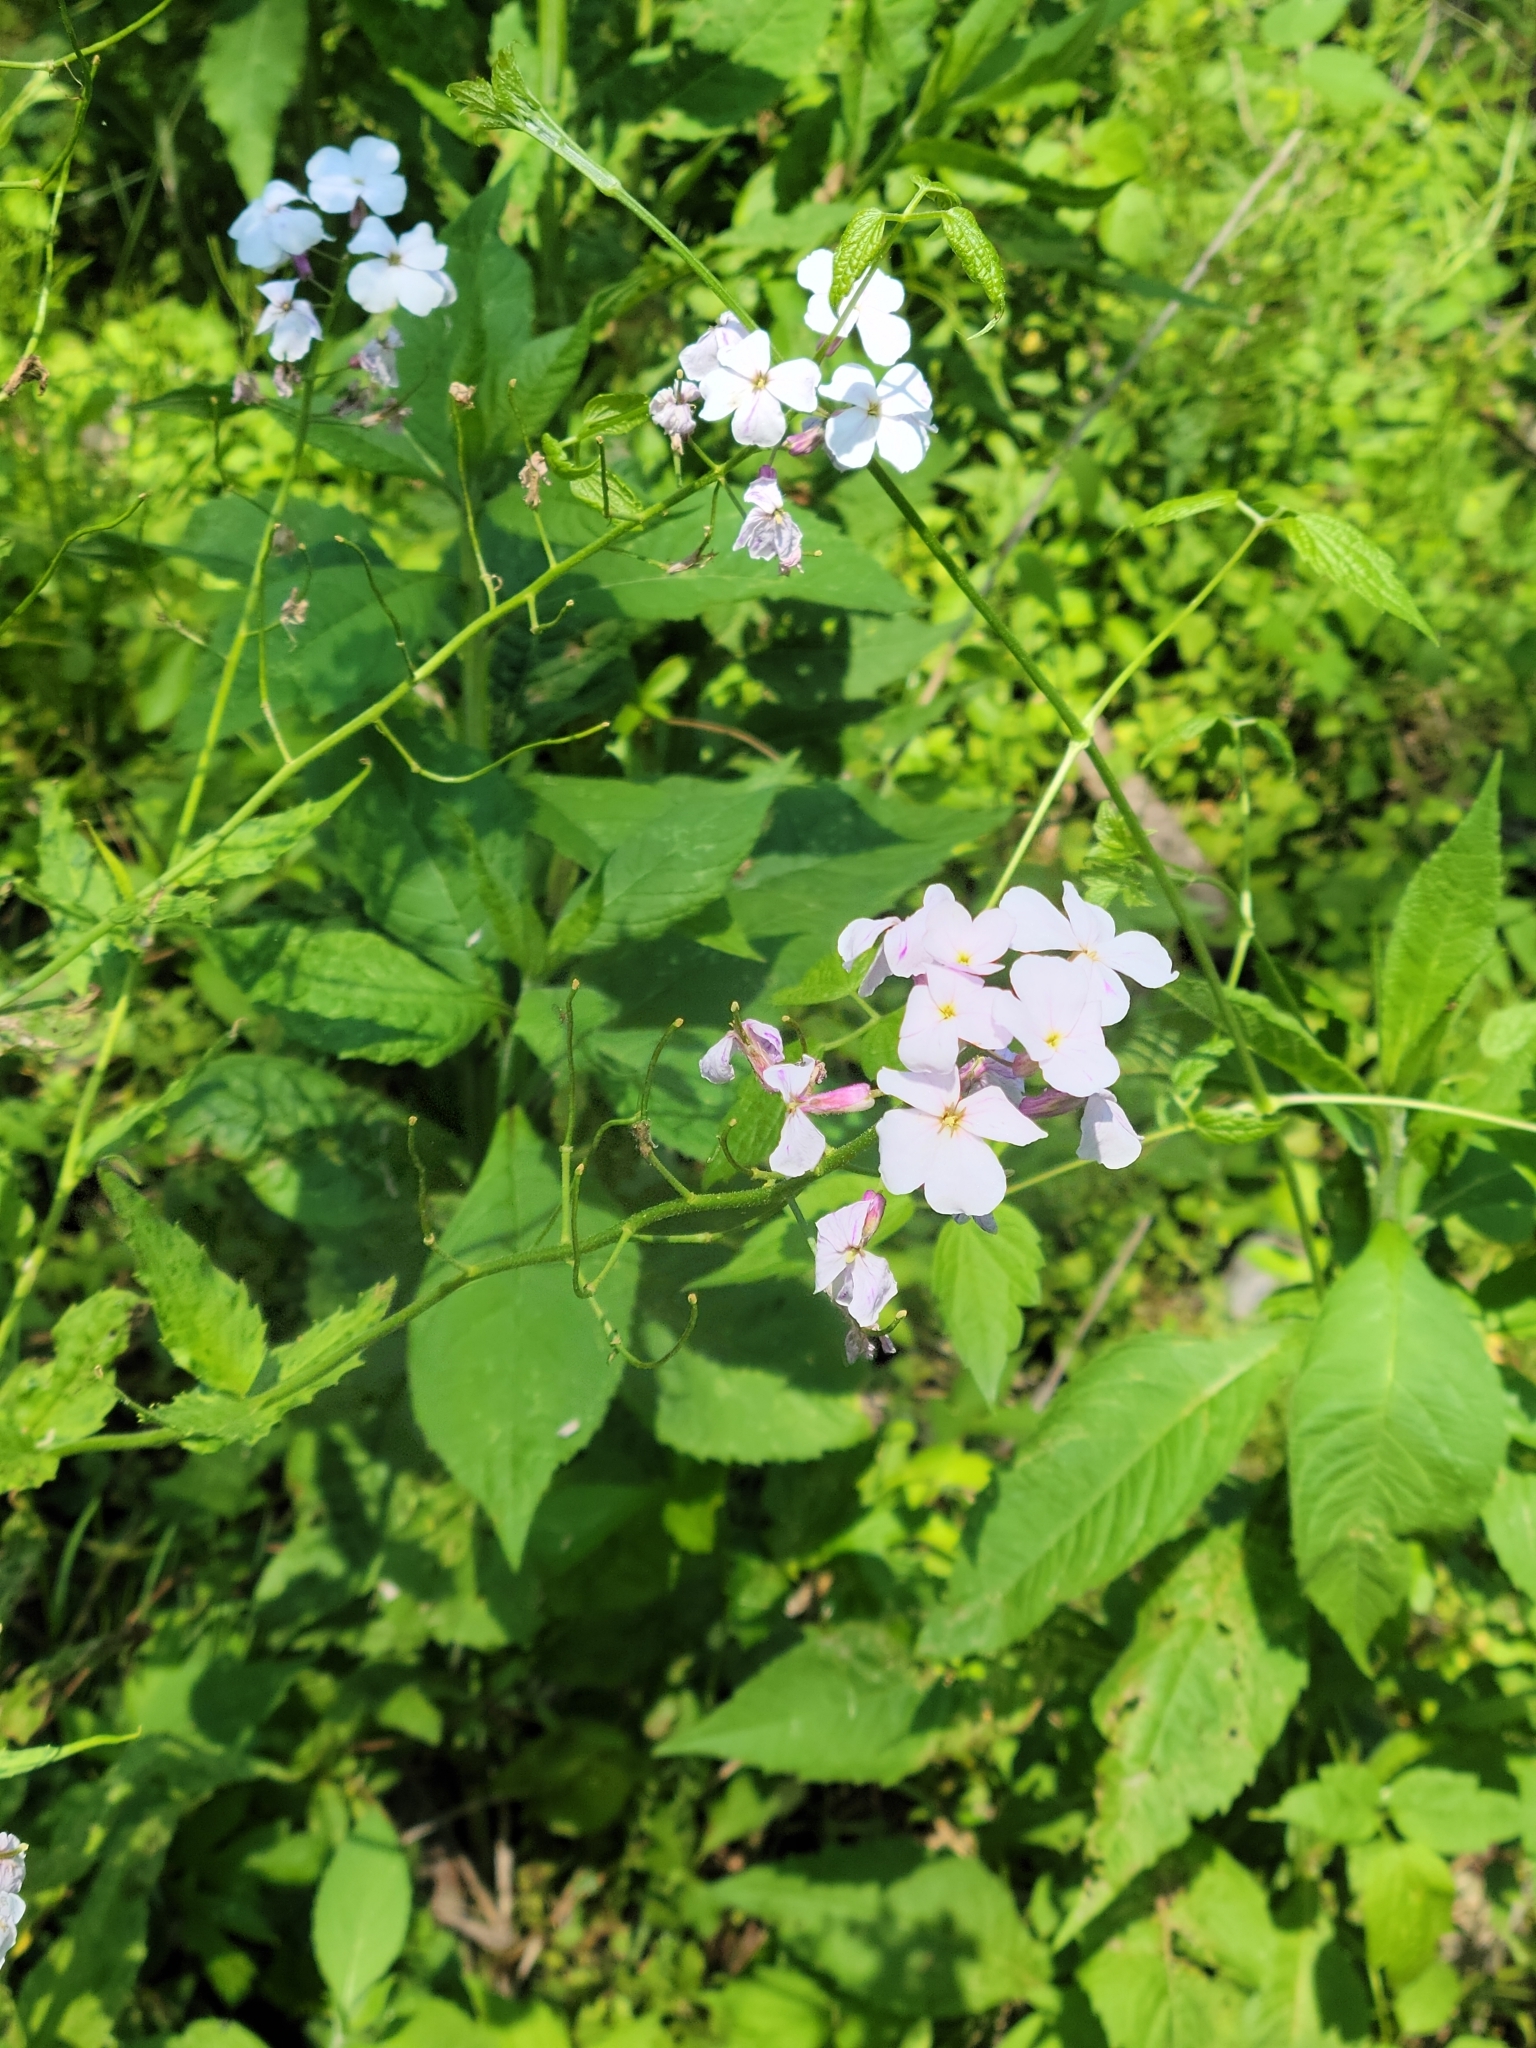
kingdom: Plantae
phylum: Tracheophyta
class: Magnoliopsida
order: Brassicales
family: Brassicaceae
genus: Hesperis
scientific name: Hesperis matronalis
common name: Dame's-violet
